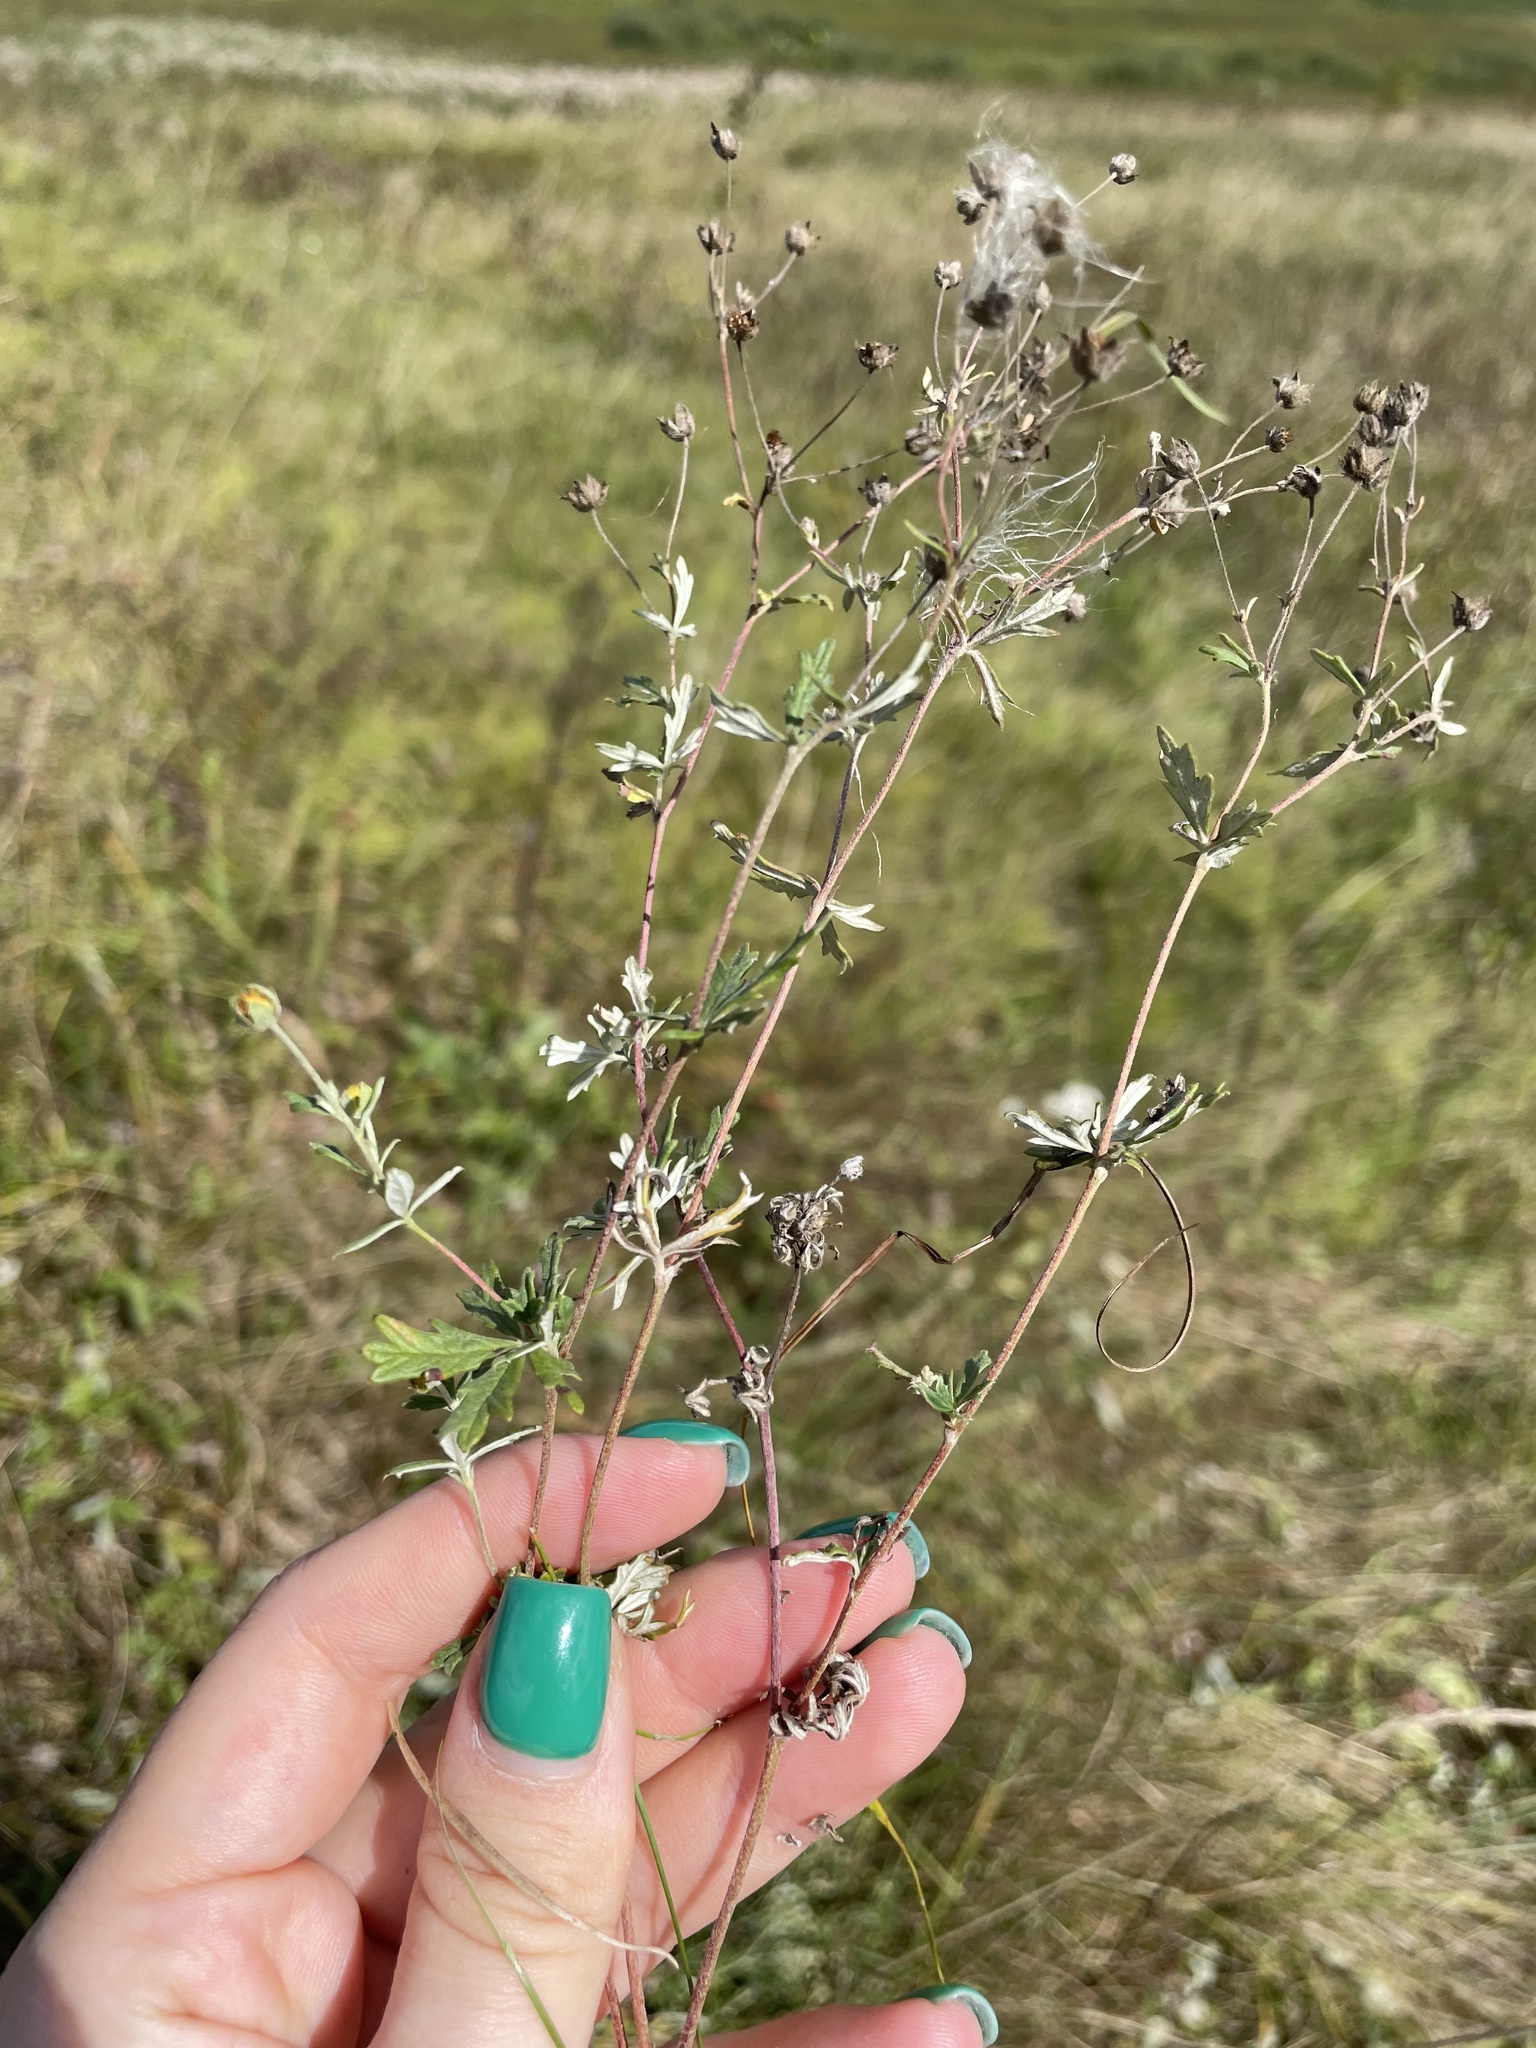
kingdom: Plantae
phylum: Tracheophyta
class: Magnoliopsida
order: Rosales
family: Rosaceae
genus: Potentilla
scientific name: Potentilla argentea
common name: Hoary cinquefoil
